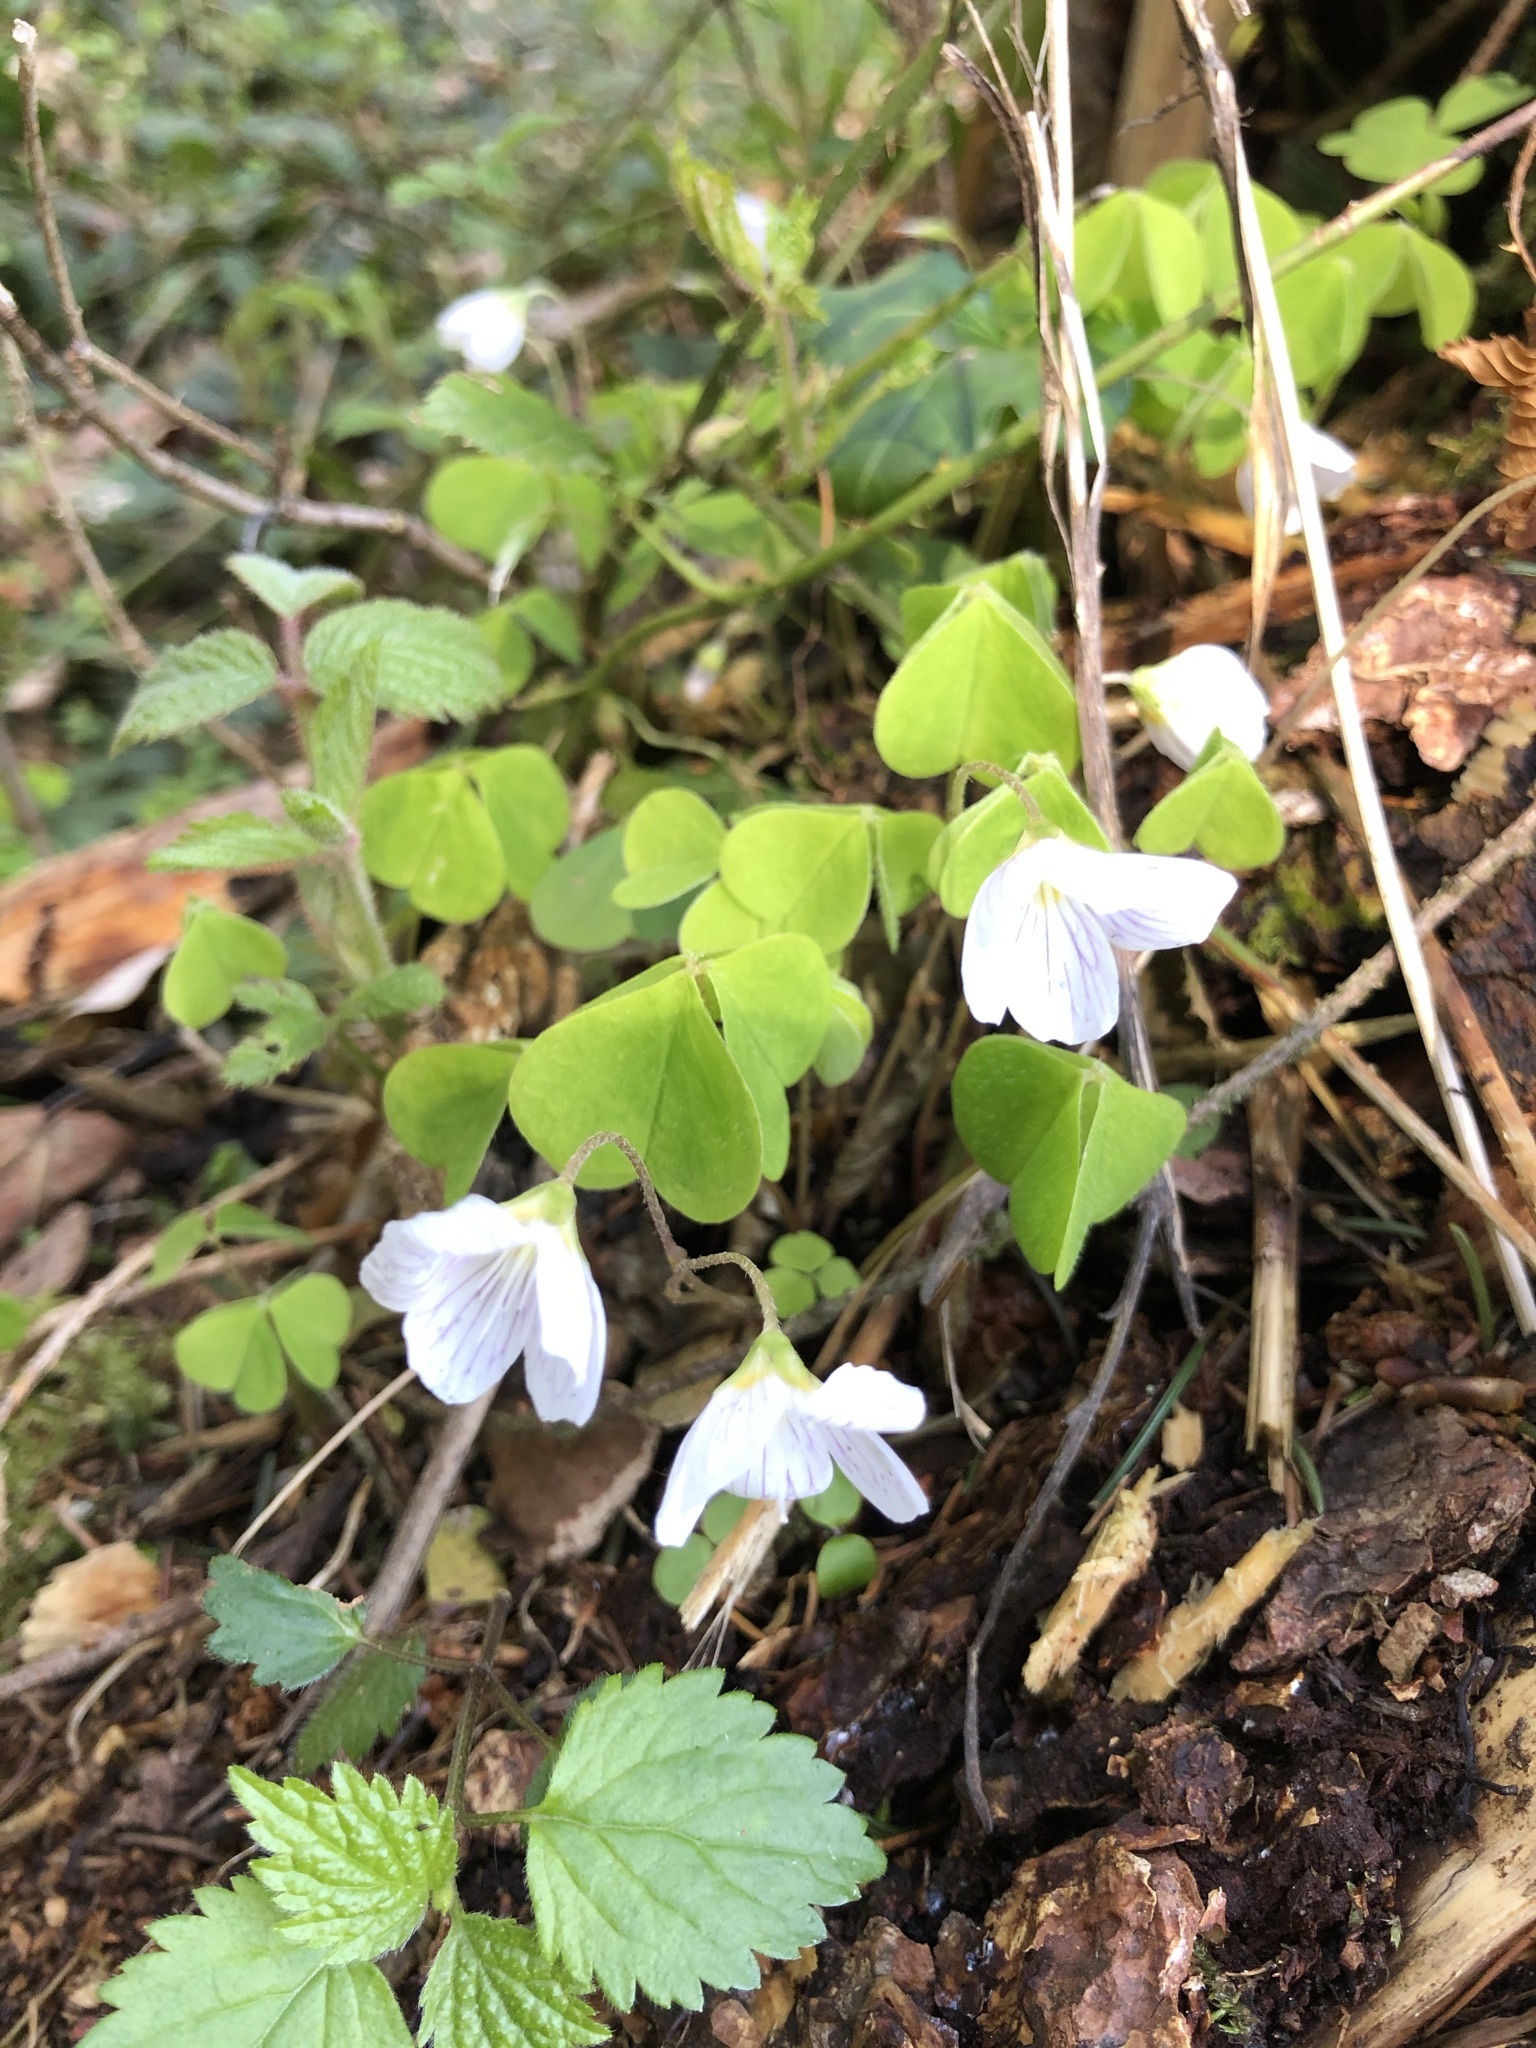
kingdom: Plantae
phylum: Tracheophyta
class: Magnoliopsida
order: Oxalidales
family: Oxalidaceae
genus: Oxalis
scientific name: Oxalis acetosella
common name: Wood-sorrel
